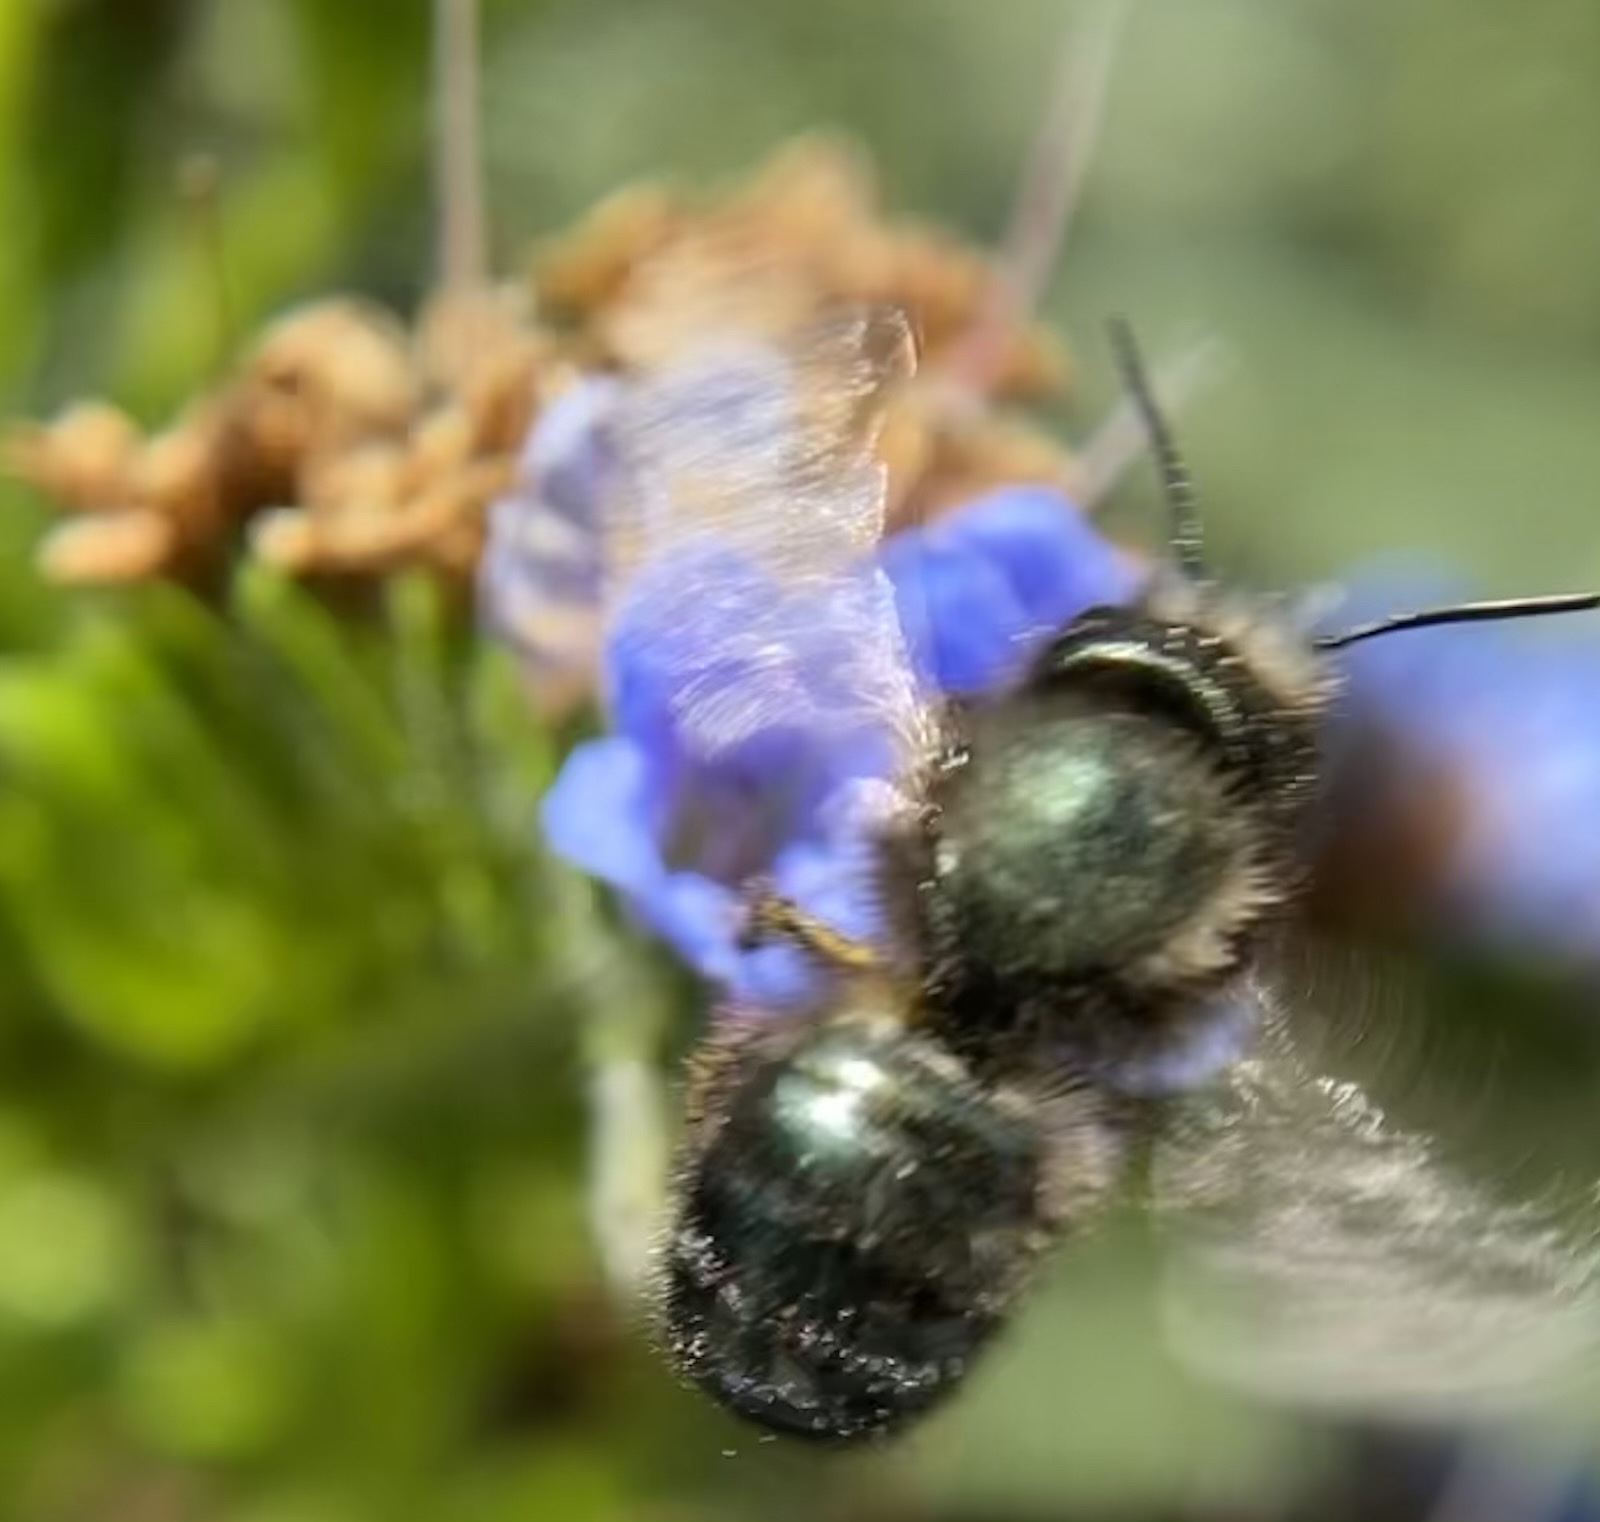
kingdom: Animalia
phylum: Arthropoda
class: Insecta
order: Hymenoptera
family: Megachilidae
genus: Osmia
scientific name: Osmia lignaria
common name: Blue orchard bee
